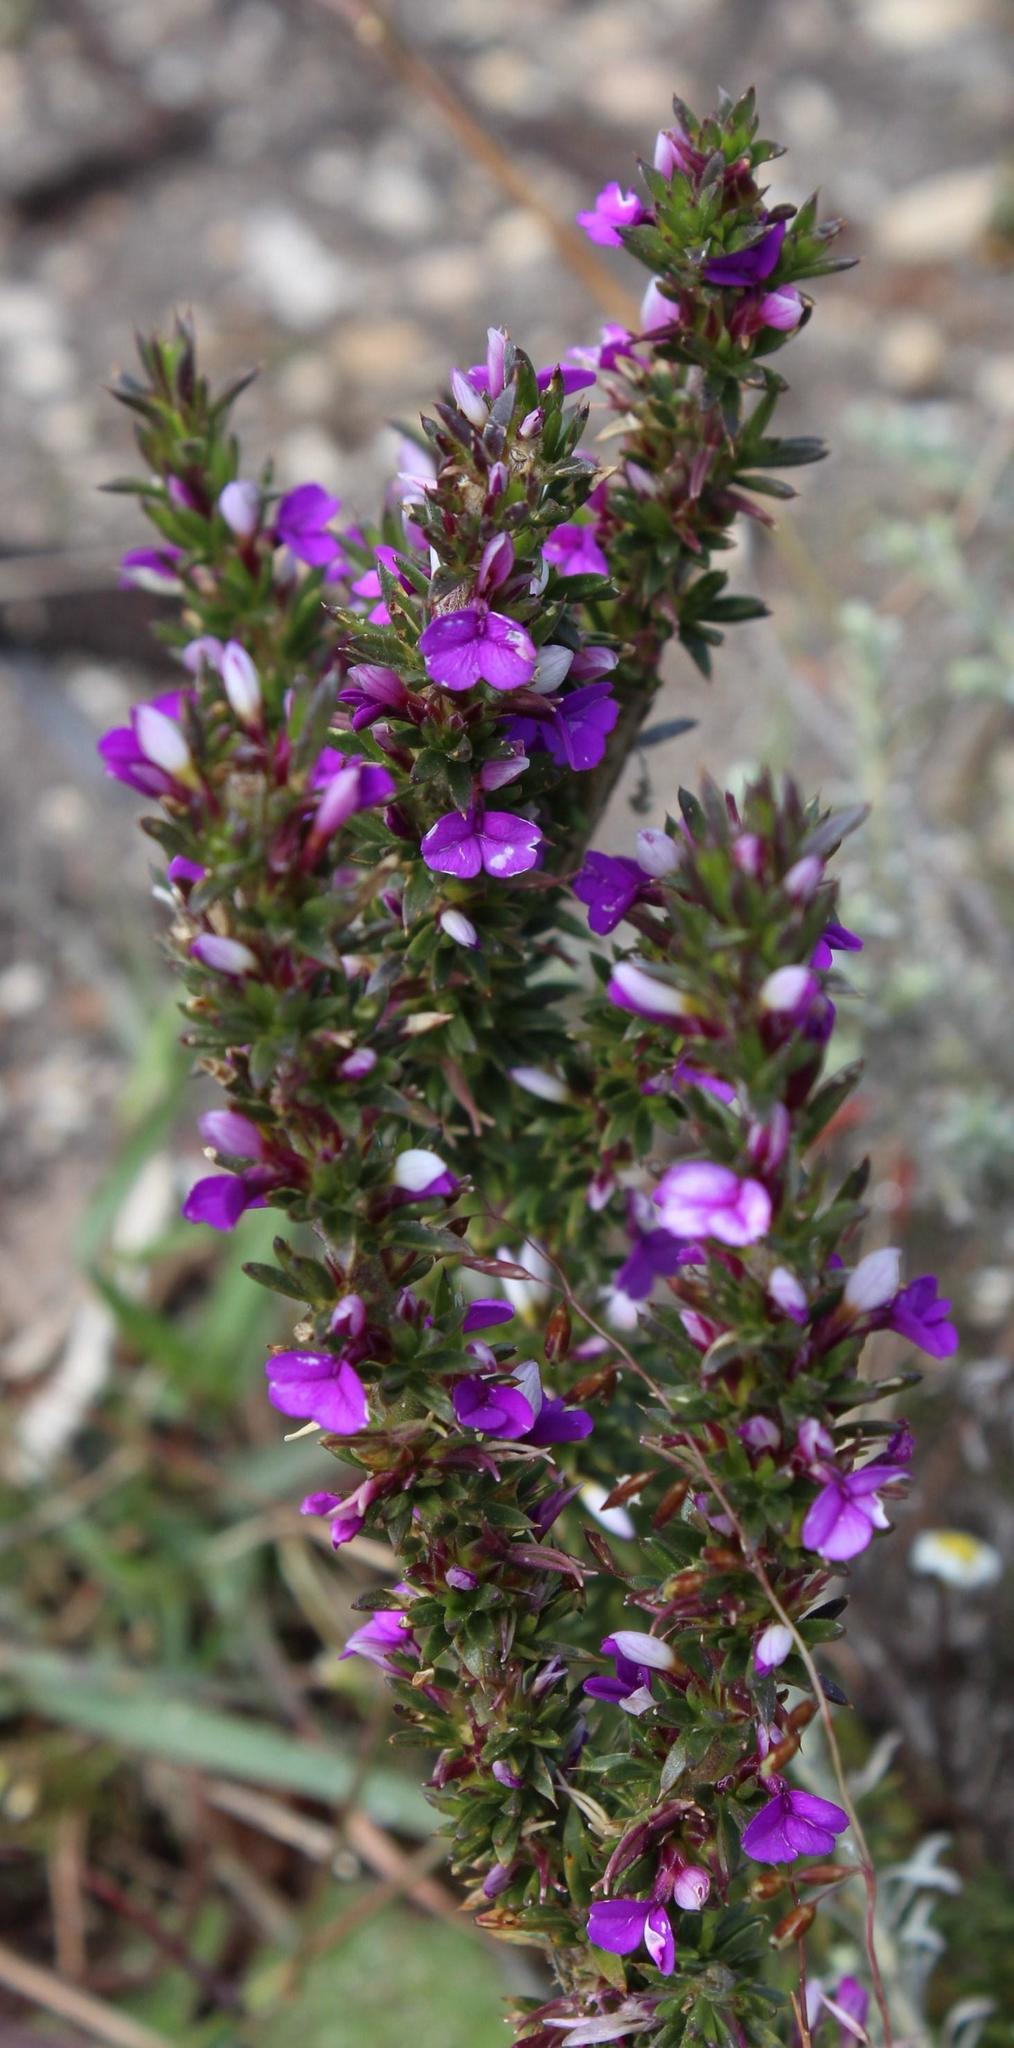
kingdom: Plantae
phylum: Tracheophyta
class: Magnoliopsida
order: Fabales
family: Polygalaceae
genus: Muraltia
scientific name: Muraltia heisteria
